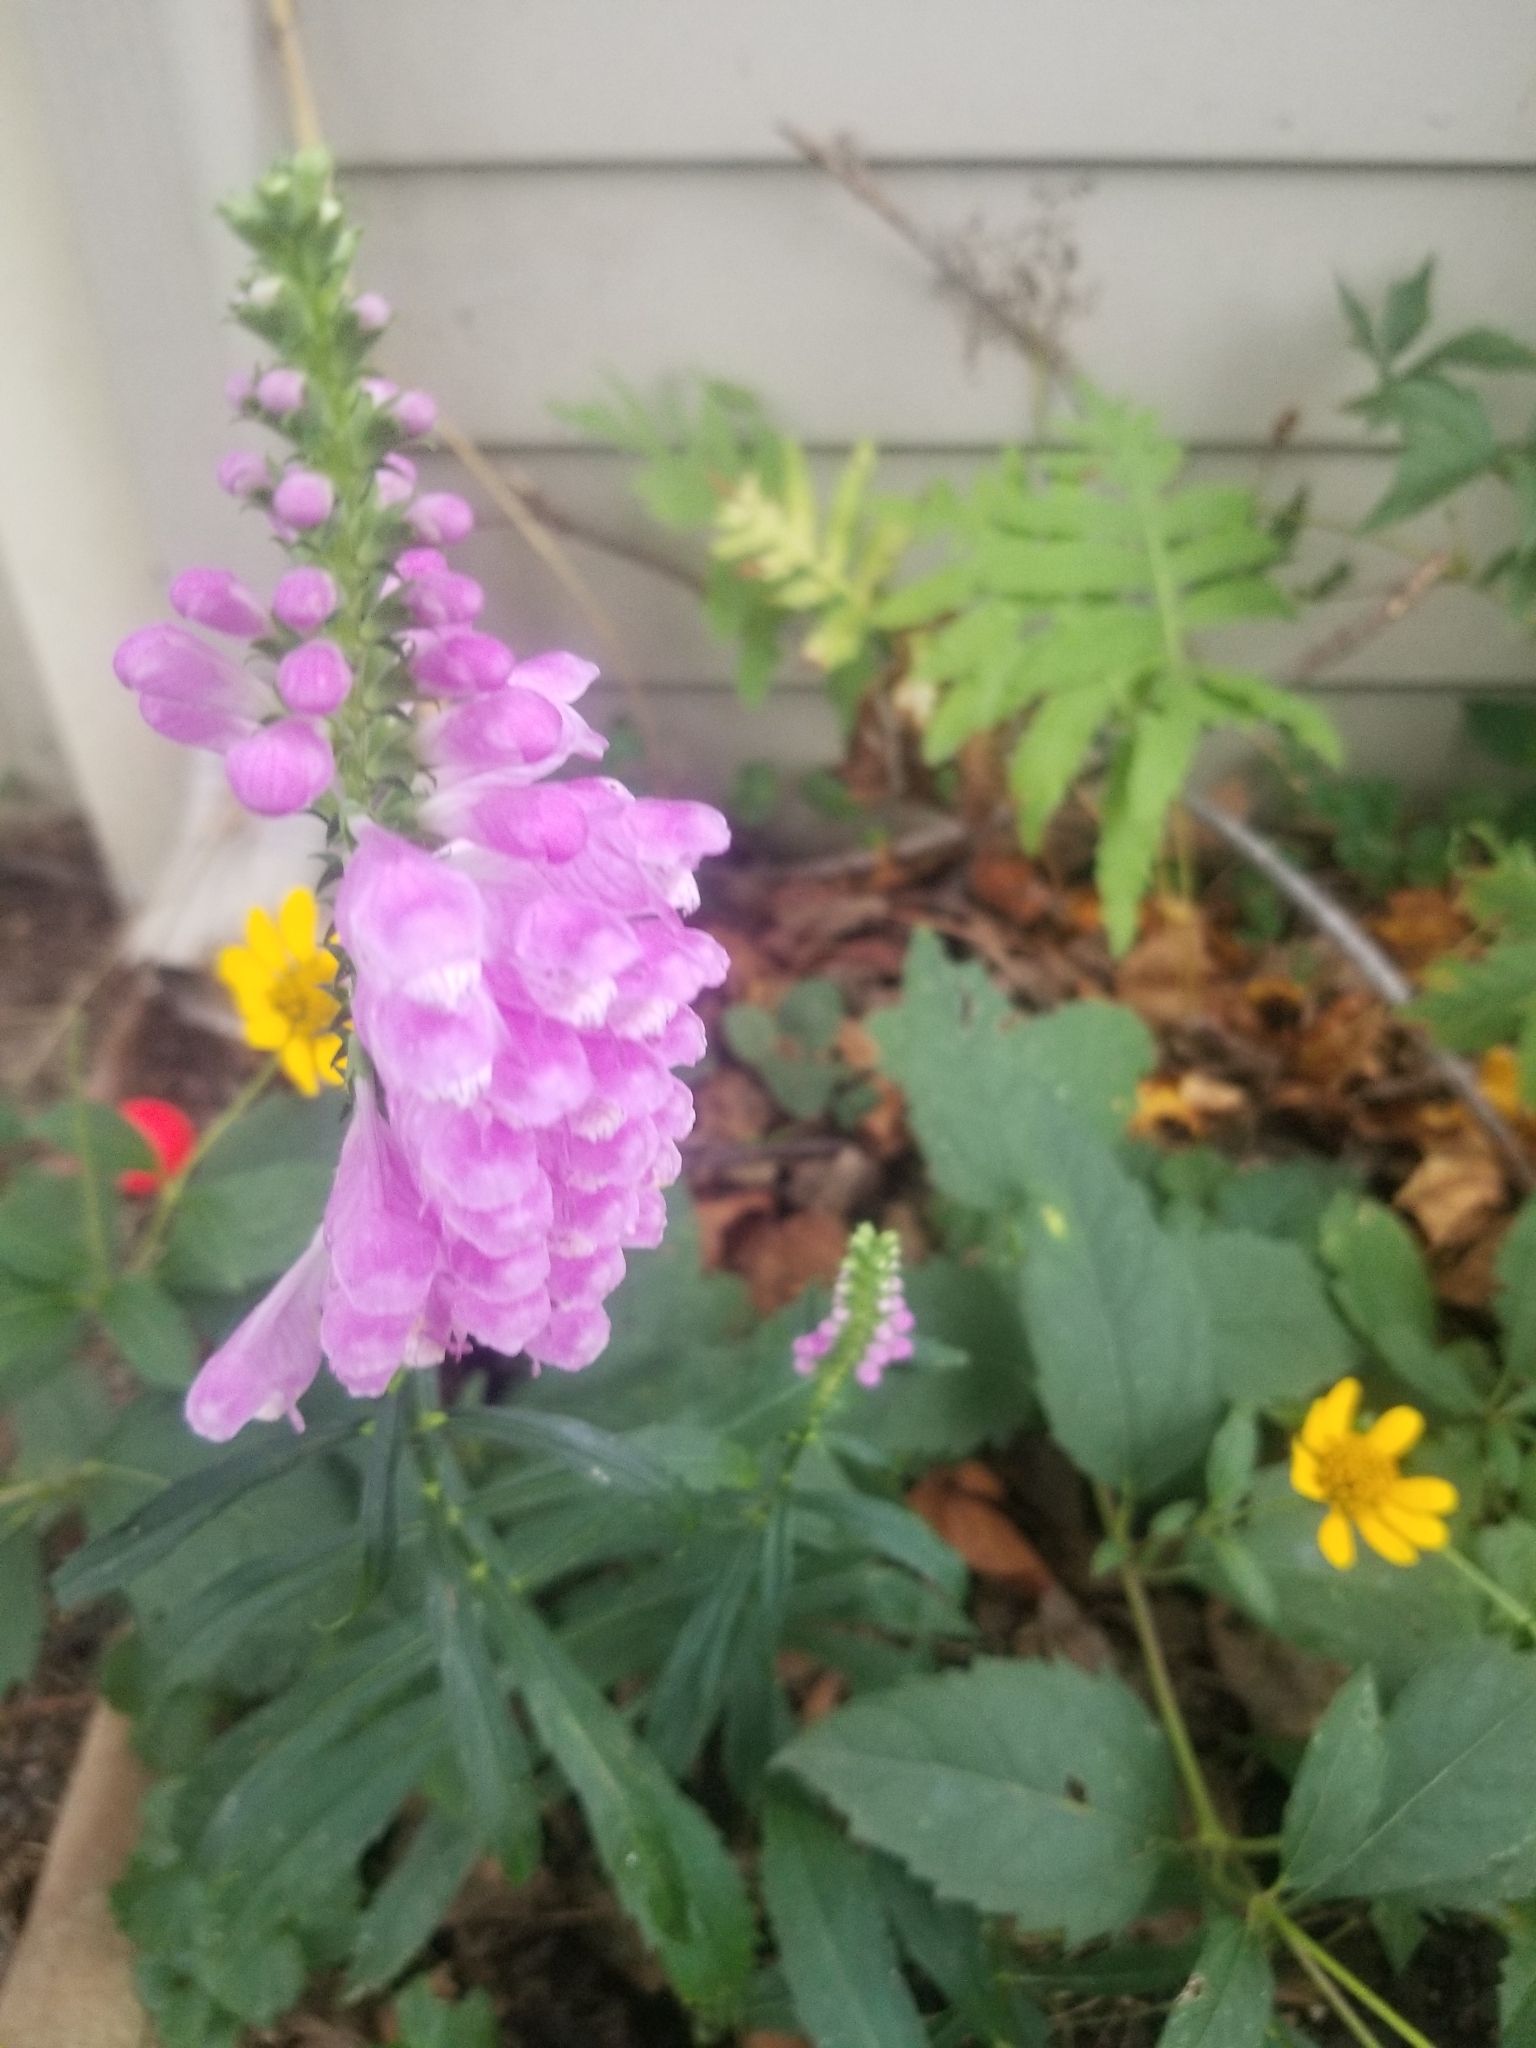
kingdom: Plantae
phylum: Tracheophyta
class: Magnoliopsida
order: Lamiales
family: Lamiaceae
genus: Physostegia
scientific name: Physostegia virginiana
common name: Obedient-plant
